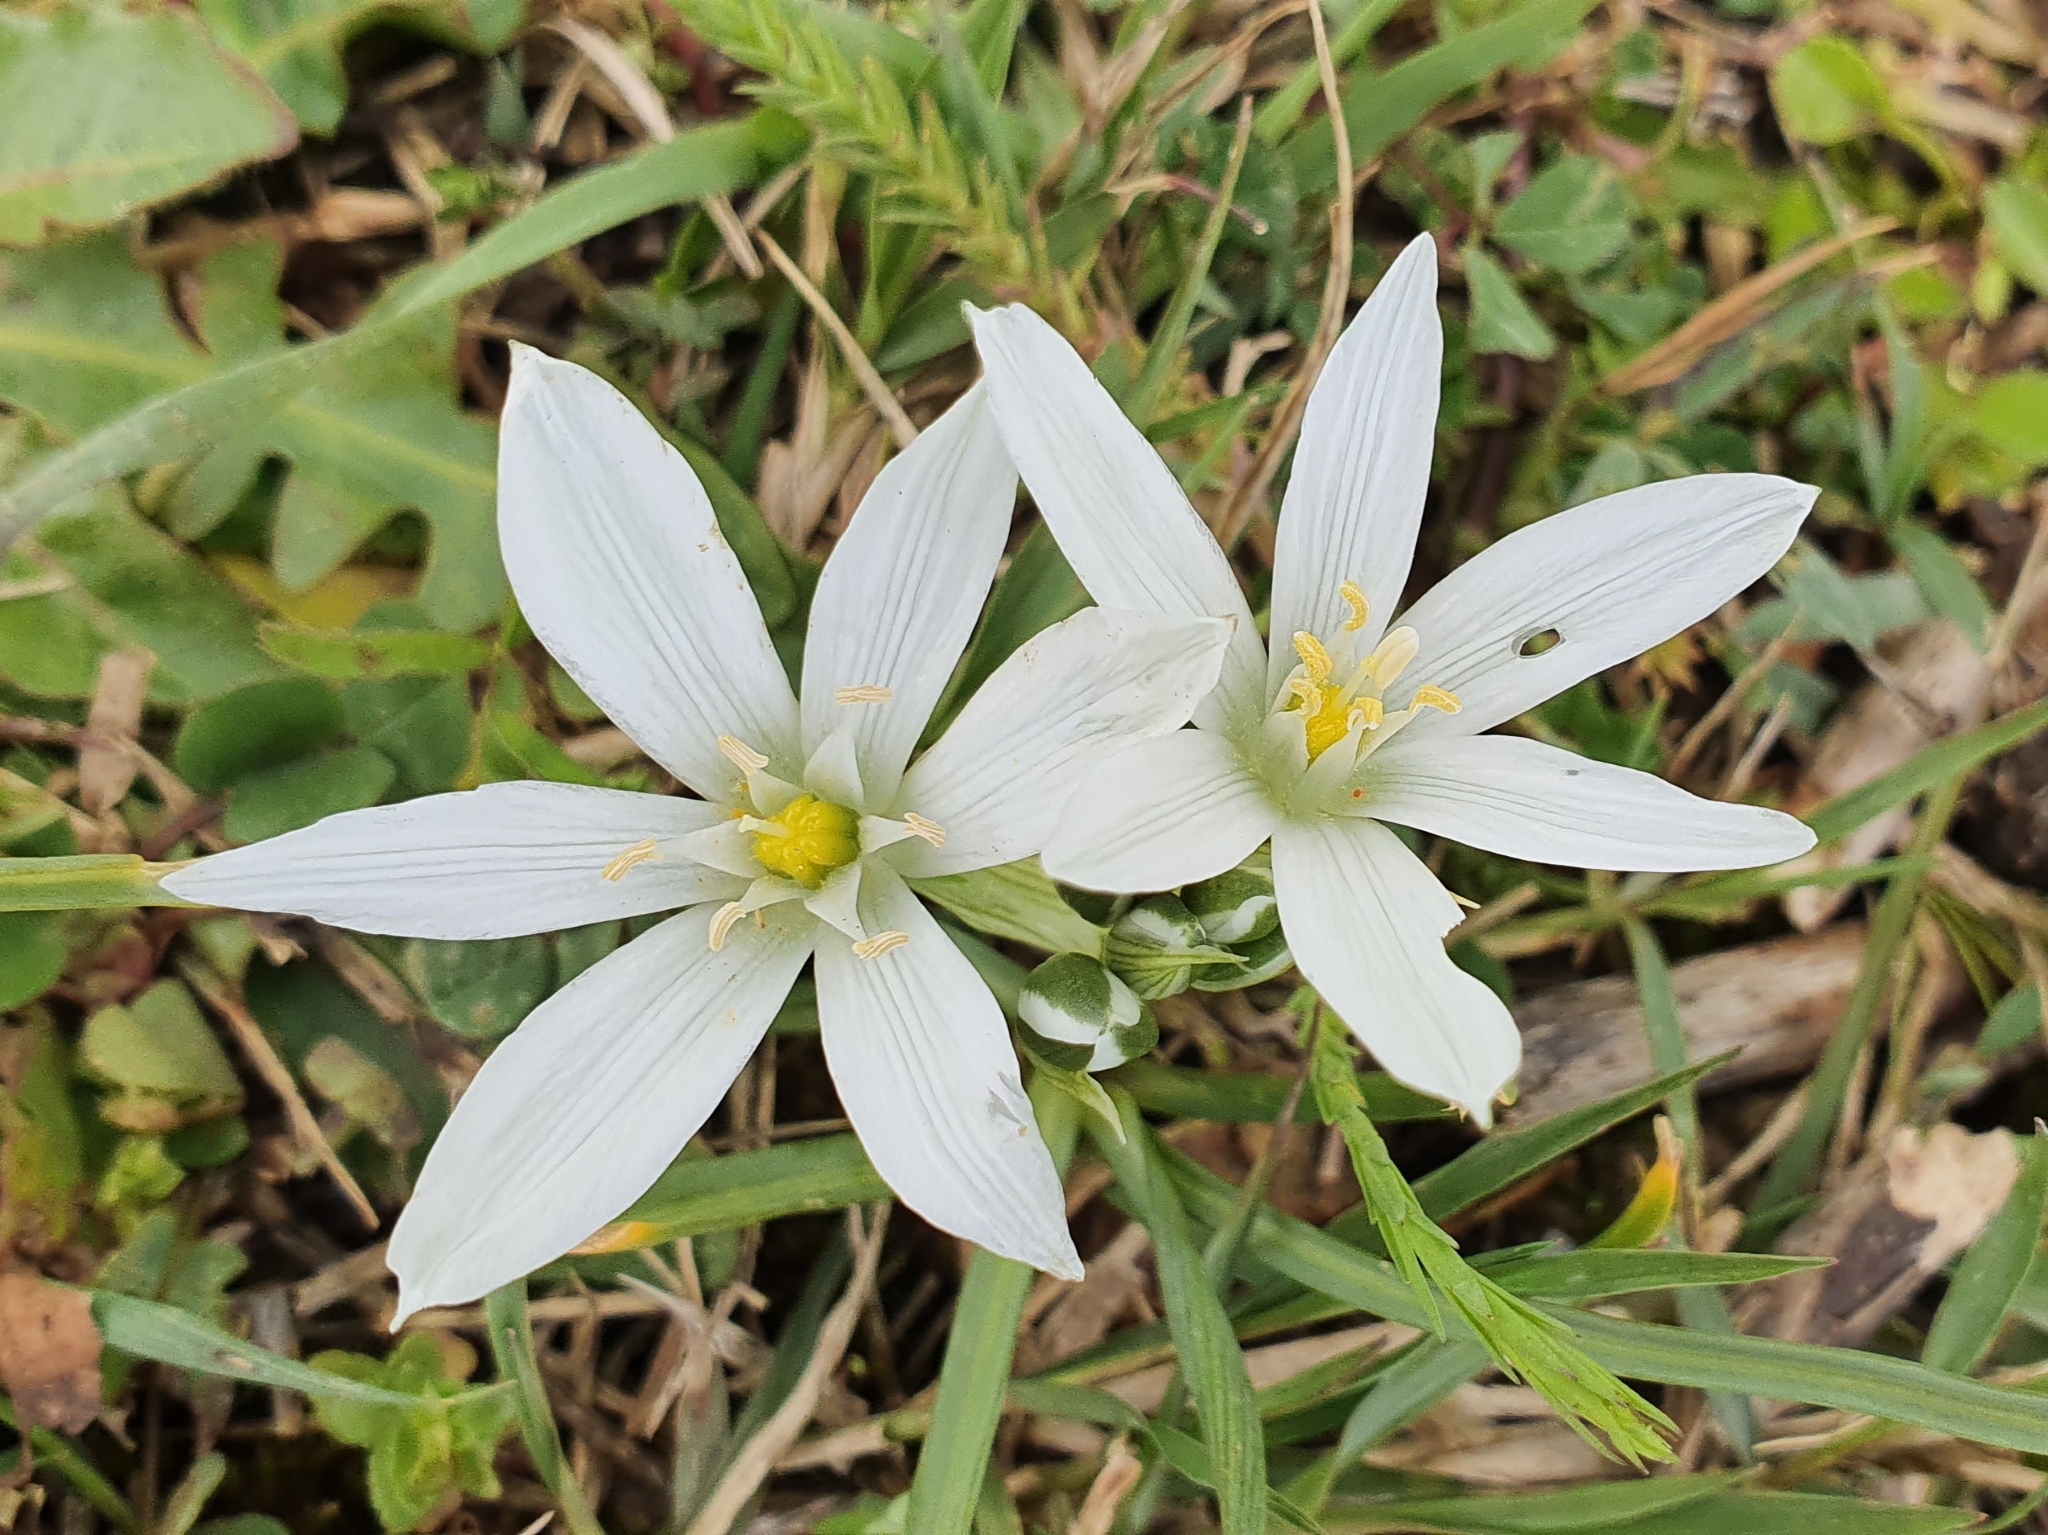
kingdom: Plantae
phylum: Tracheophyta
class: Liliopsida
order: Asparagales
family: Asparagaceae
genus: Ornithogalum
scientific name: Ornithogalum baeticum
